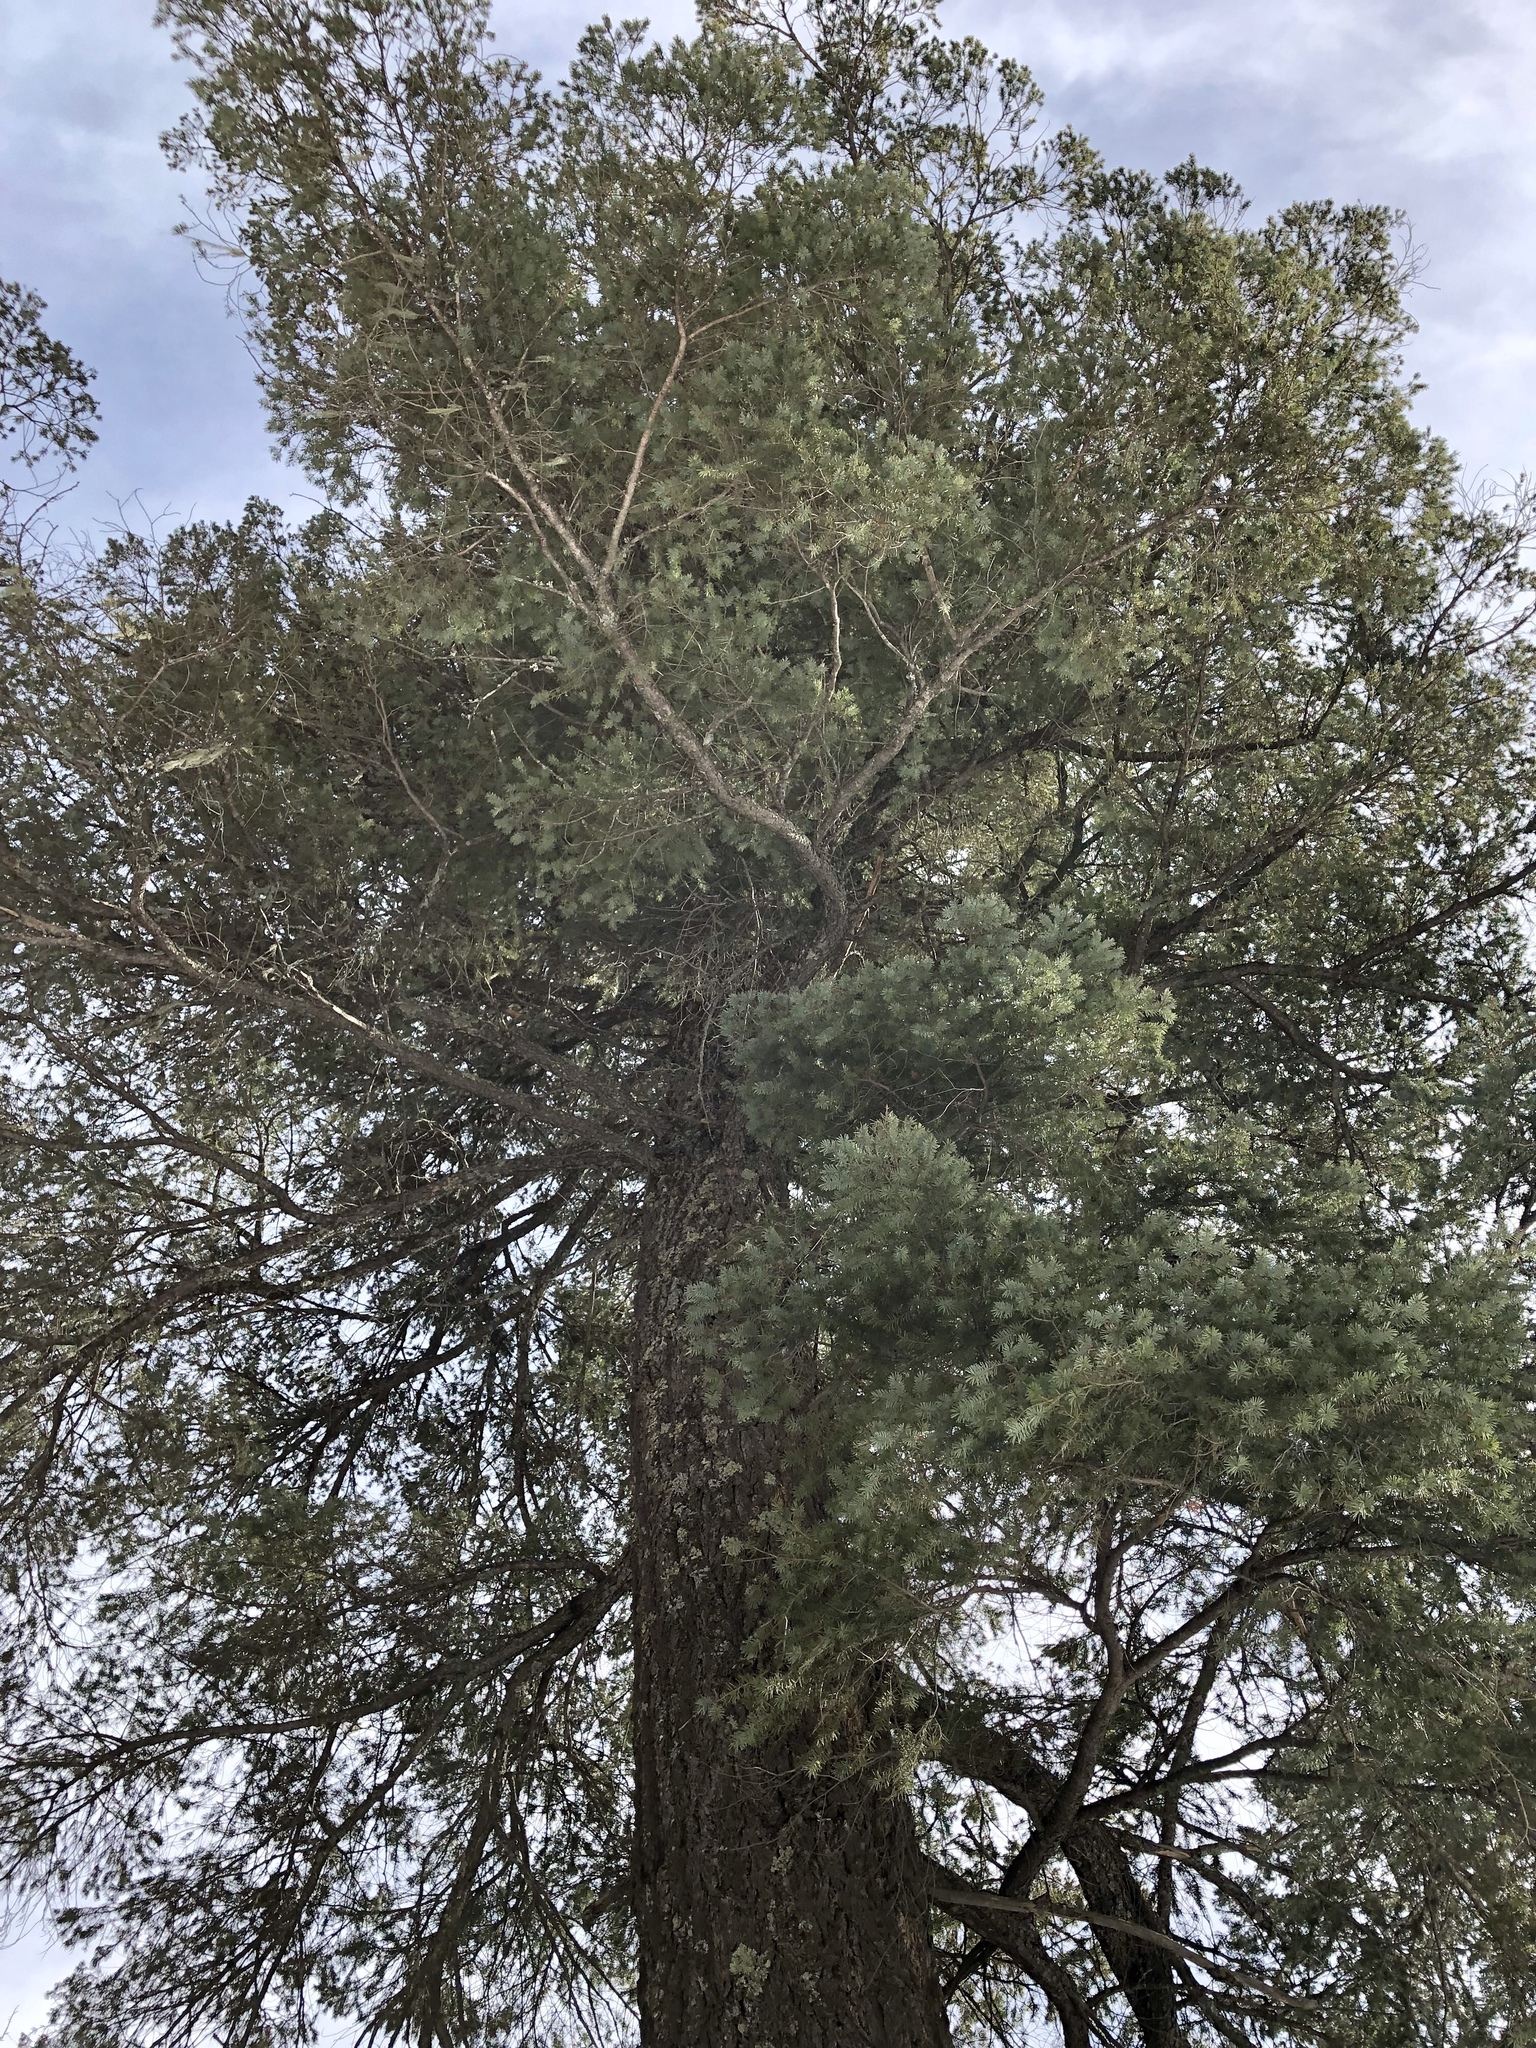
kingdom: Plantae
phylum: Tracheophyta
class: Pinopsida
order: Pinales
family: Pinaceae
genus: Pseudotsuga
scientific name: Pseudotsuga menziesii
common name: Douglas fir
